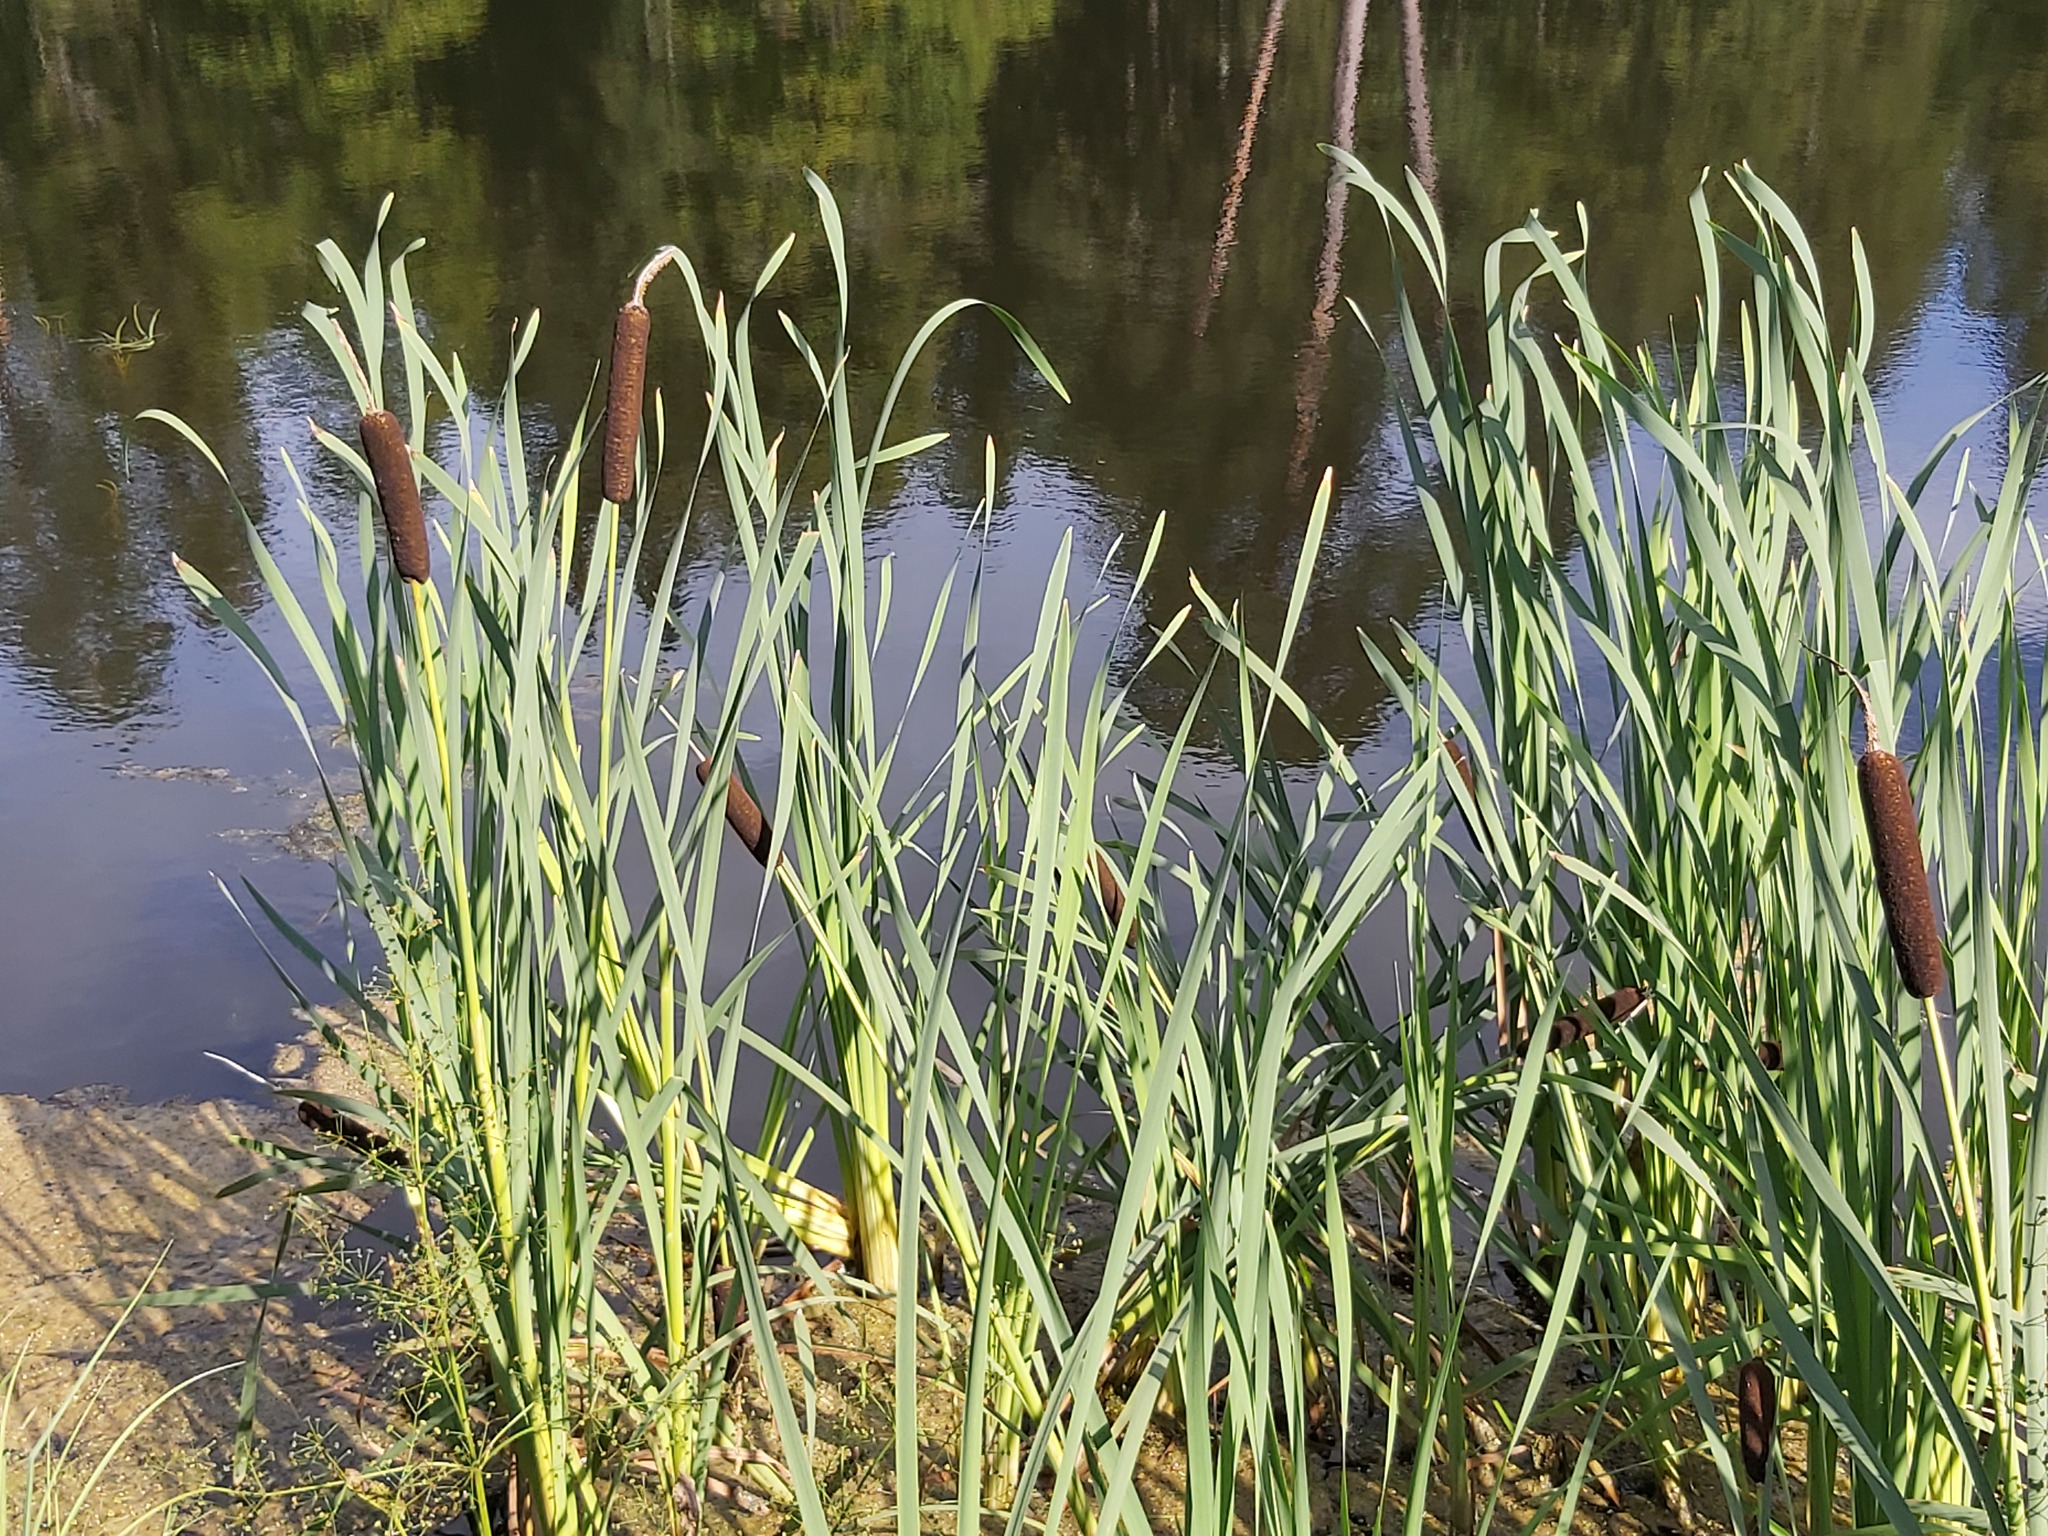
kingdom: Plantae
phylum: Tracheophyta
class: Liliopsida
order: Poales
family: Typhaceae
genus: Typha
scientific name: Typha latifolia
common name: Broadleaf cattail
